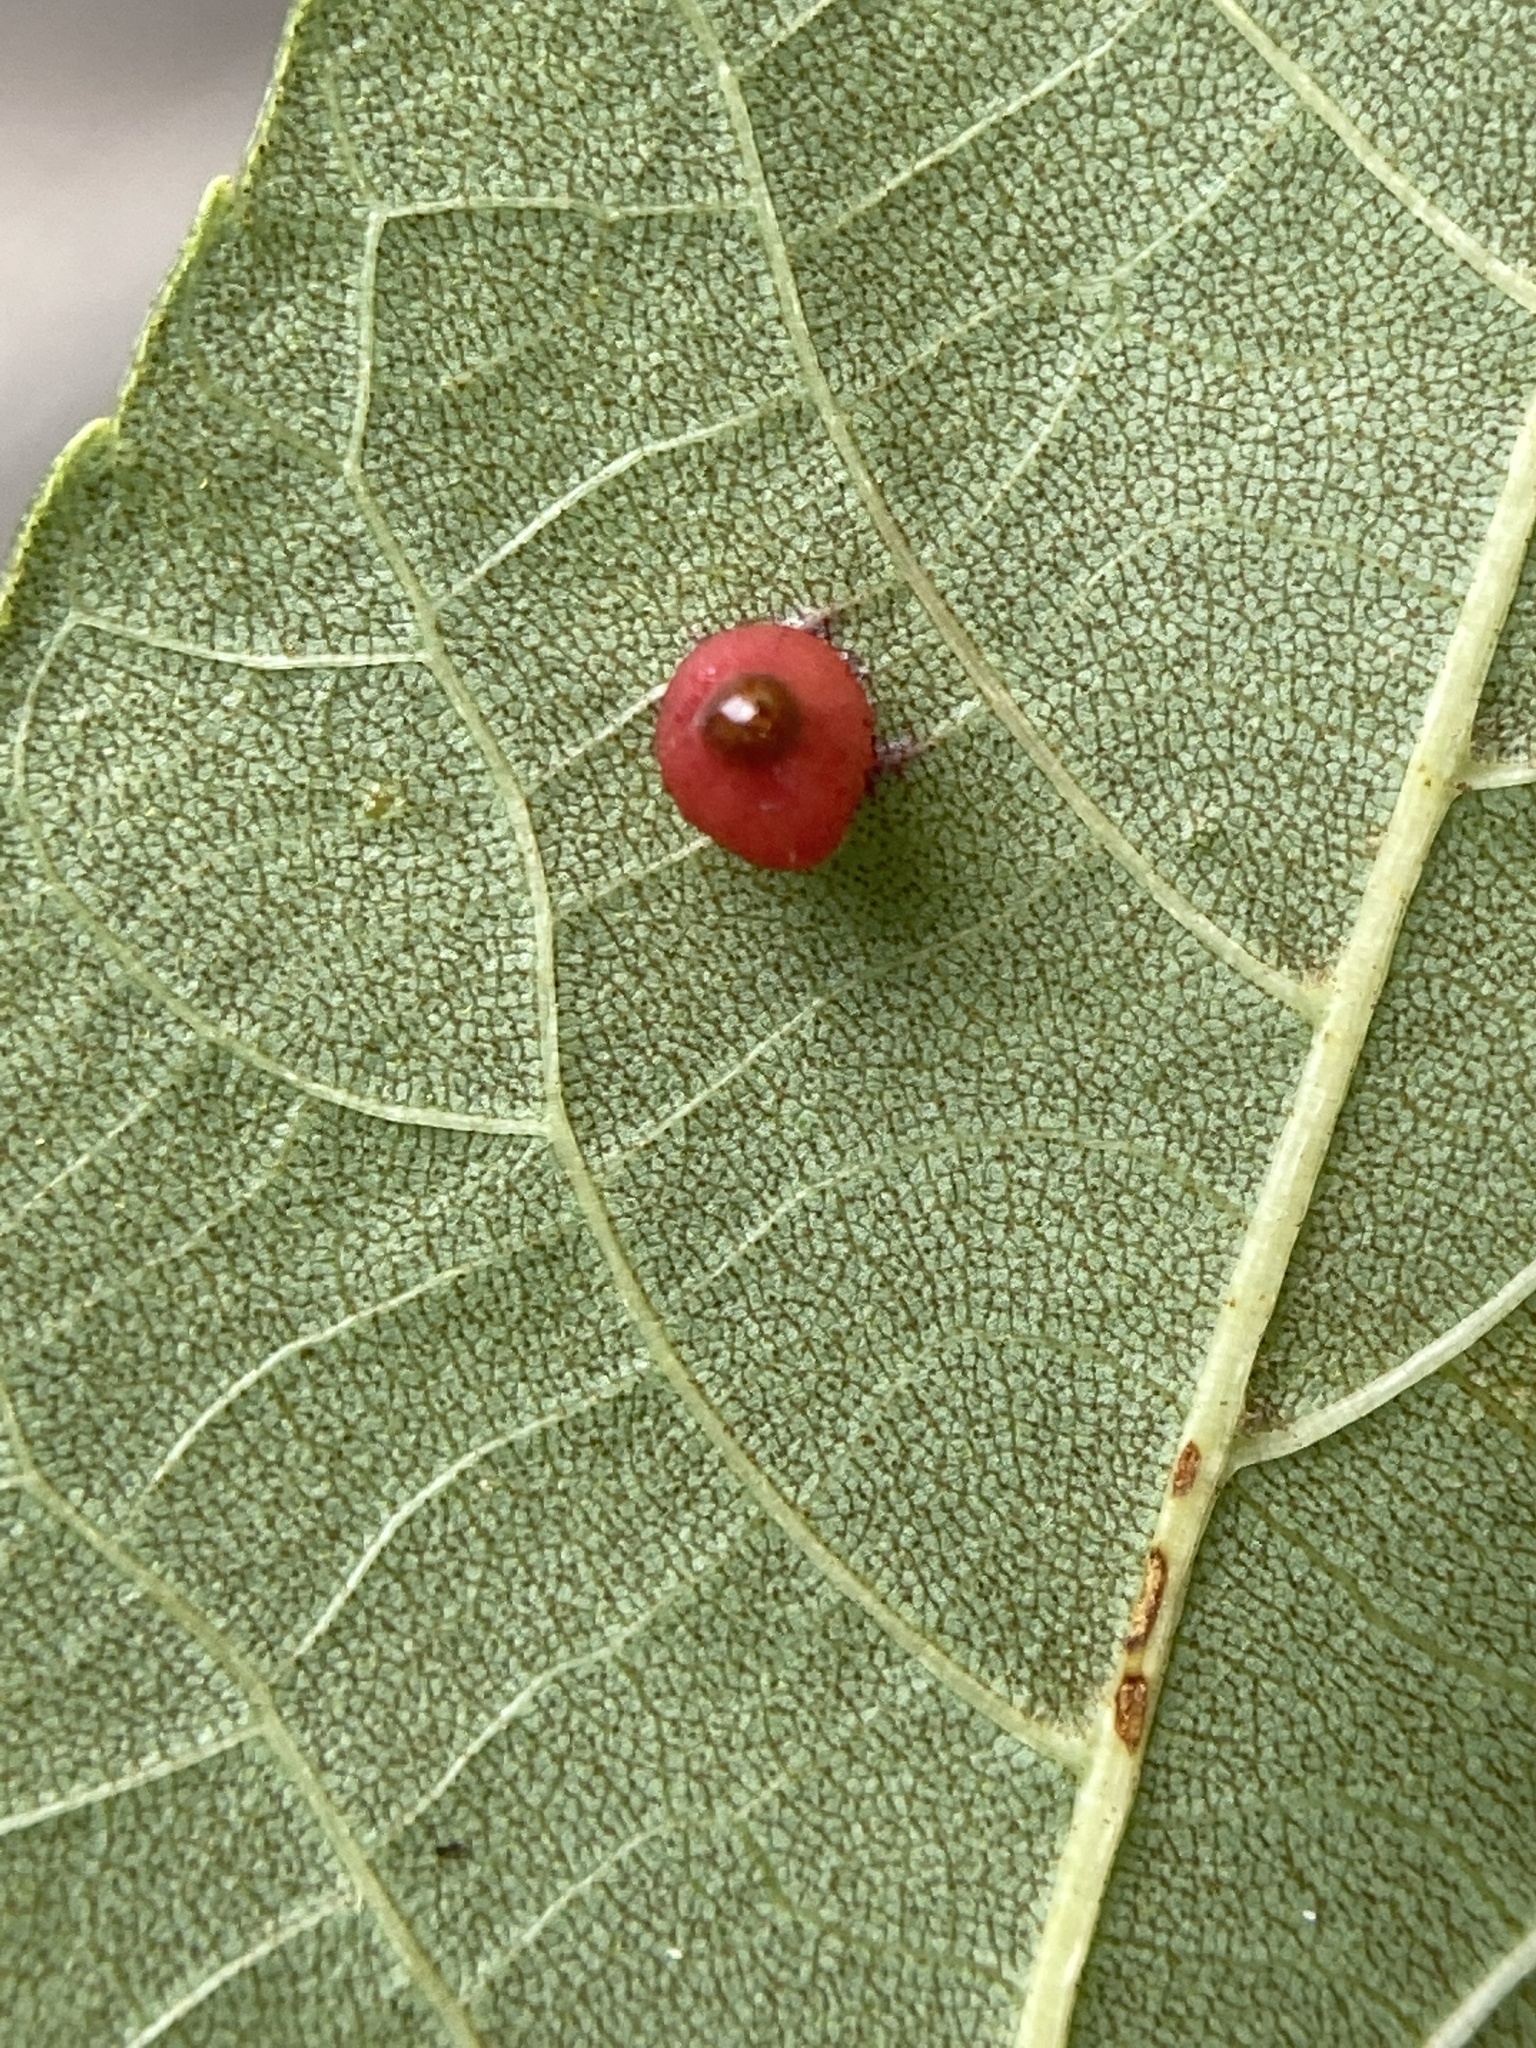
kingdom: Animalia
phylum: Arthropoda
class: Insecta
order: Diptera
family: Cecidomyiidae
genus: Caryomyia
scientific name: Caryomyia caryae
